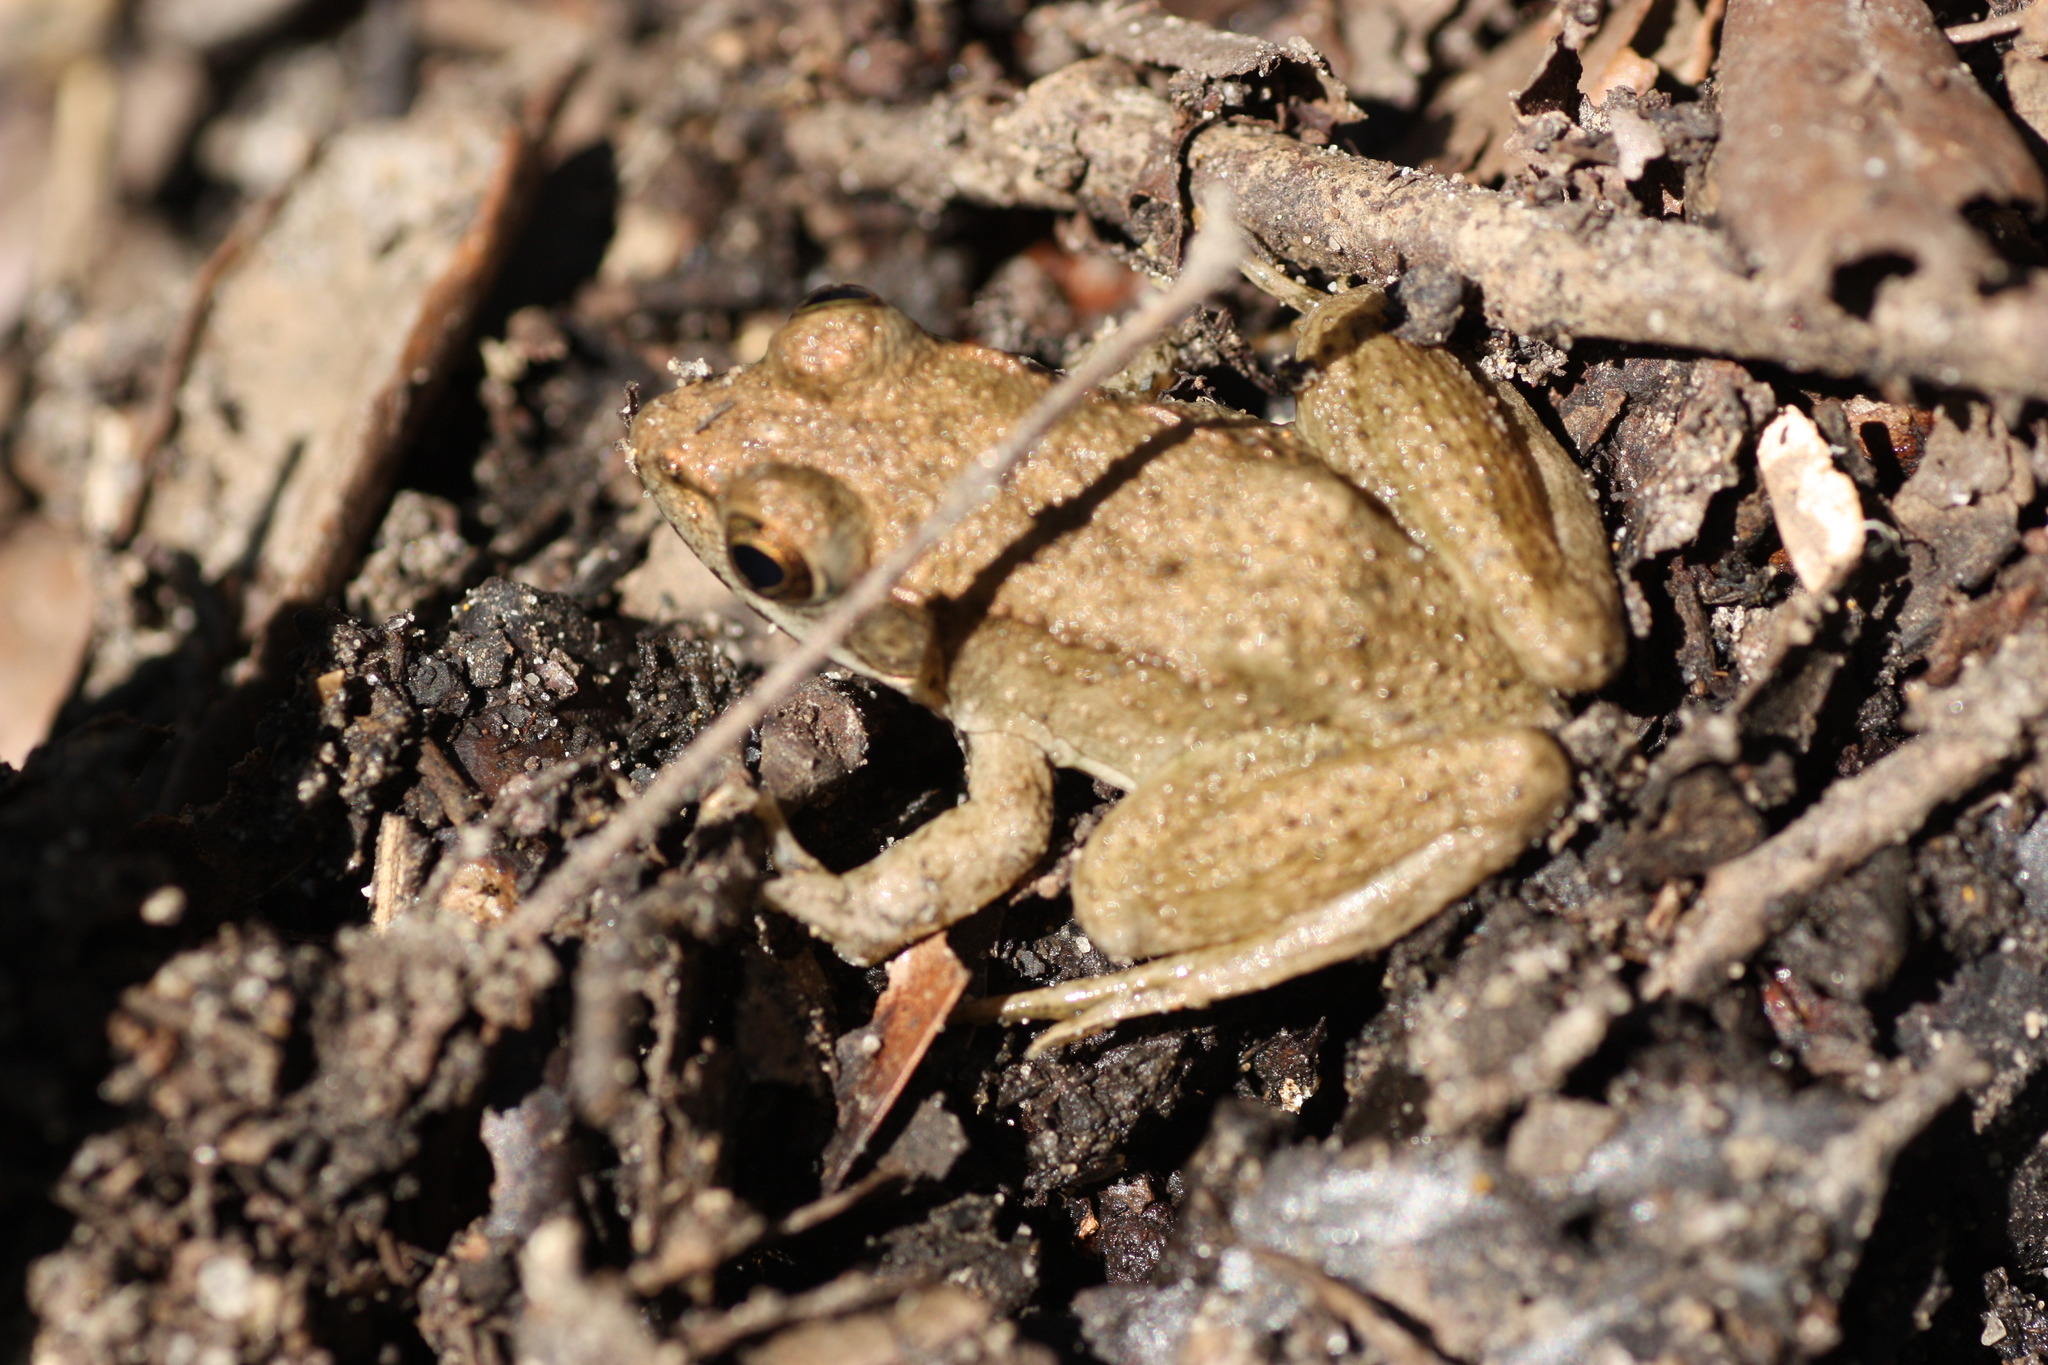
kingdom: Animalia
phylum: Chordata
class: Amphibia
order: Anura
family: Ranidae
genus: Lithobates
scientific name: Lithobates clamitans
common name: Green frog
